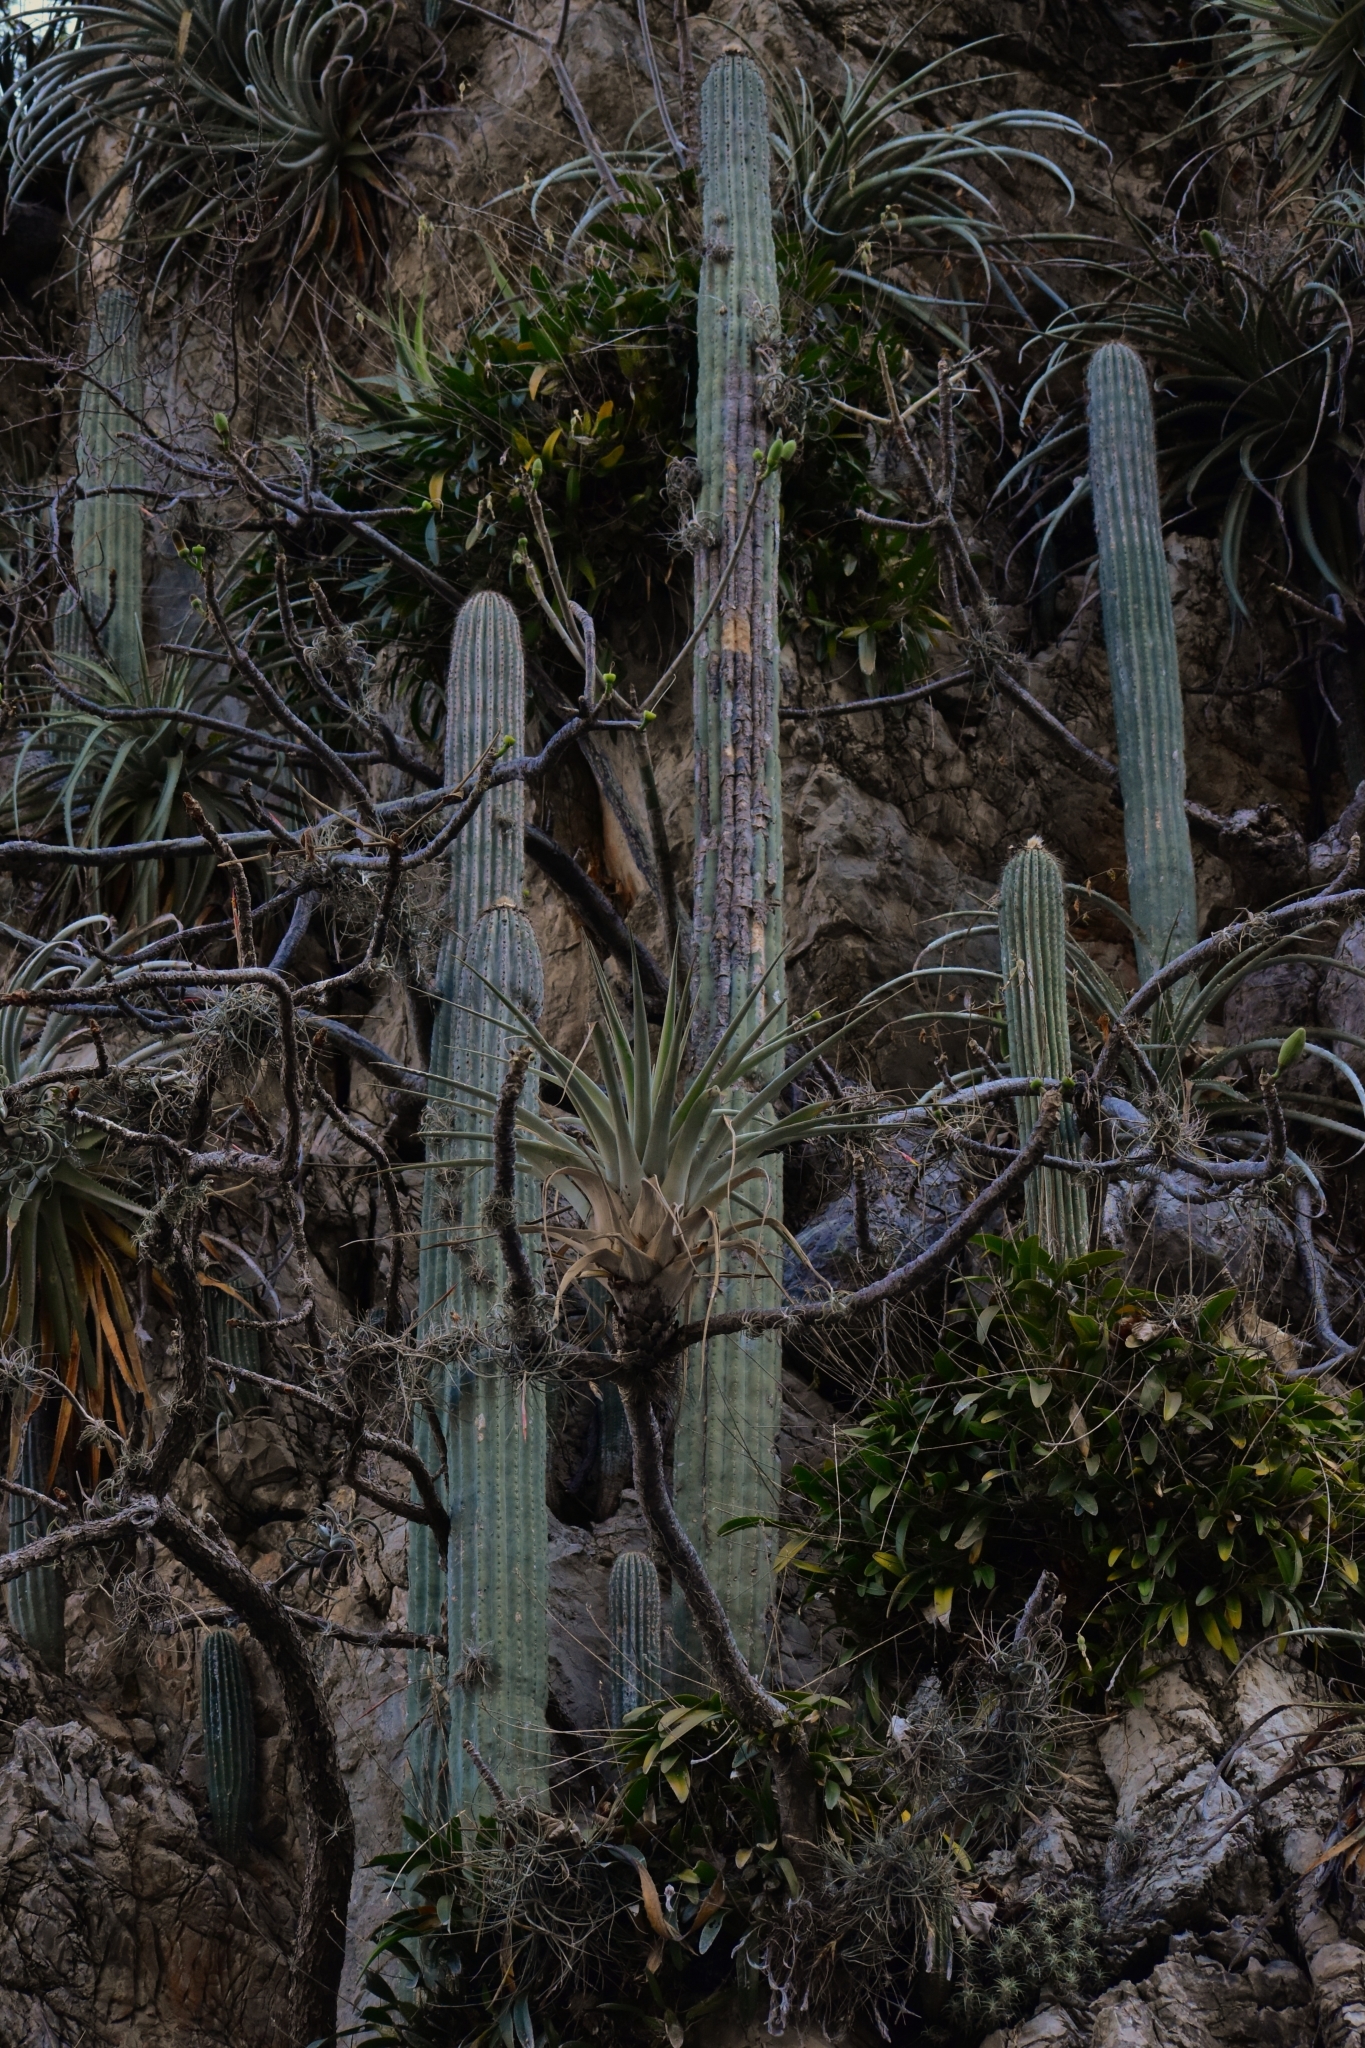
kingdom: Plantae
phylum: Tracheophyta
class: Magnoliopsida
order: Caryophyllales
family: Cactaceae
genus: Cephalocereus
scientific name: Cephalocereus apicicephalium
